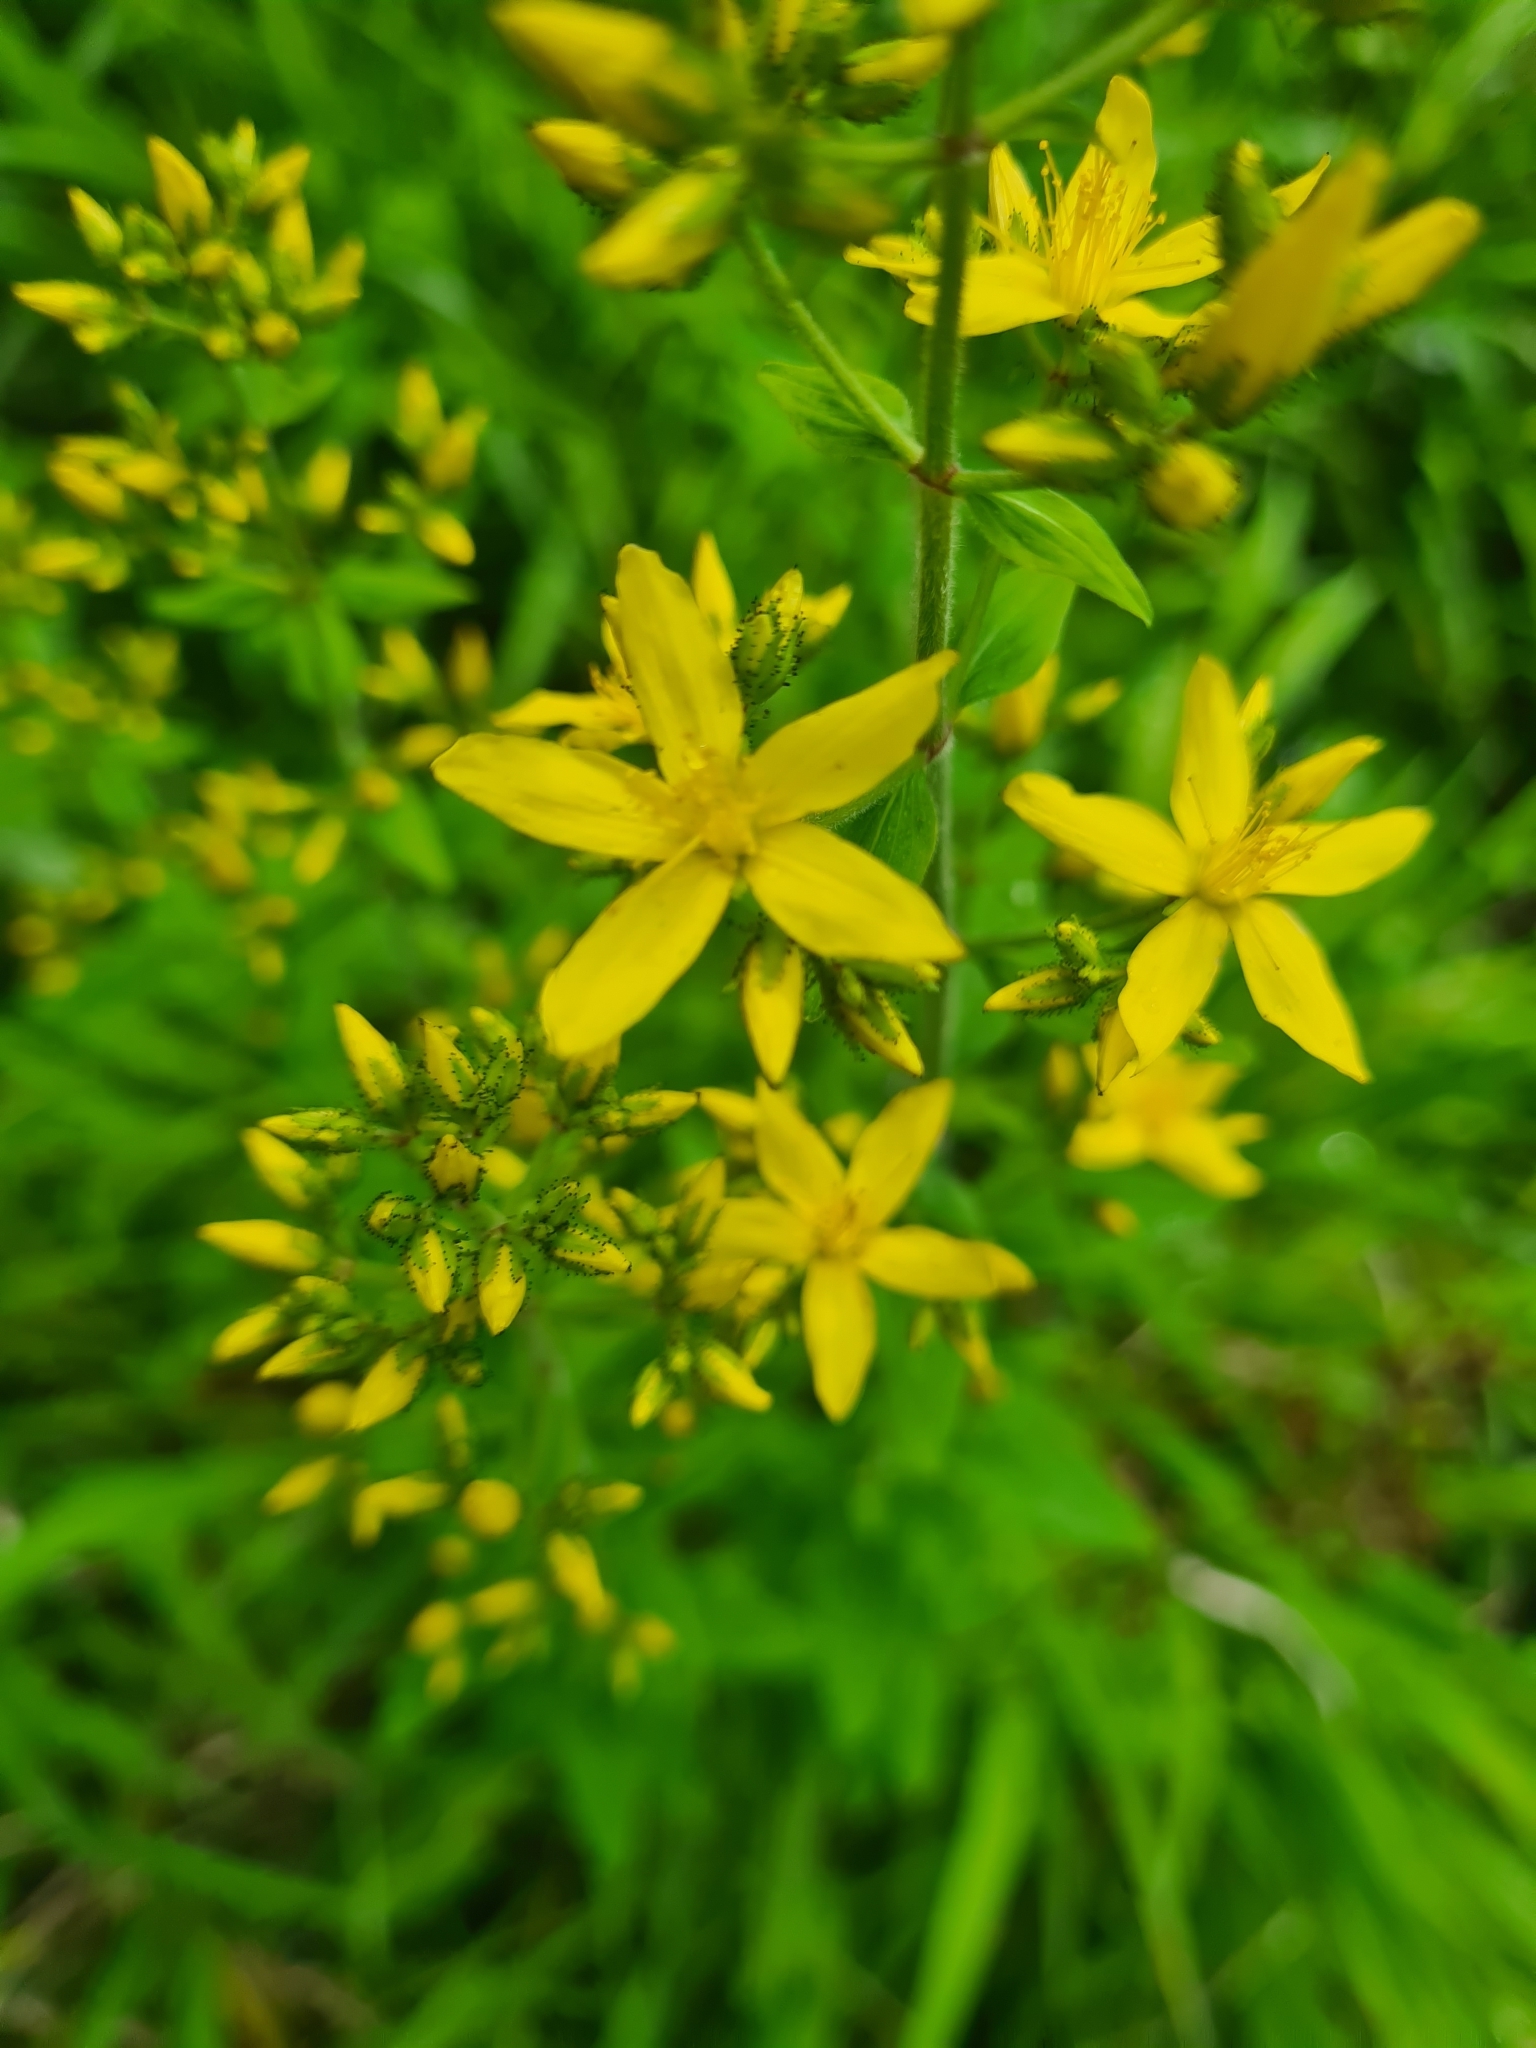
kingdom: Plantae
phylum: Tracheophyta
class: Magnoliopsida
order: Malpighiales
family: Hypericaceae
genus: Hypericum
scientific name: Hypericum hirsutum
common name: Hairy st. john's-wort
